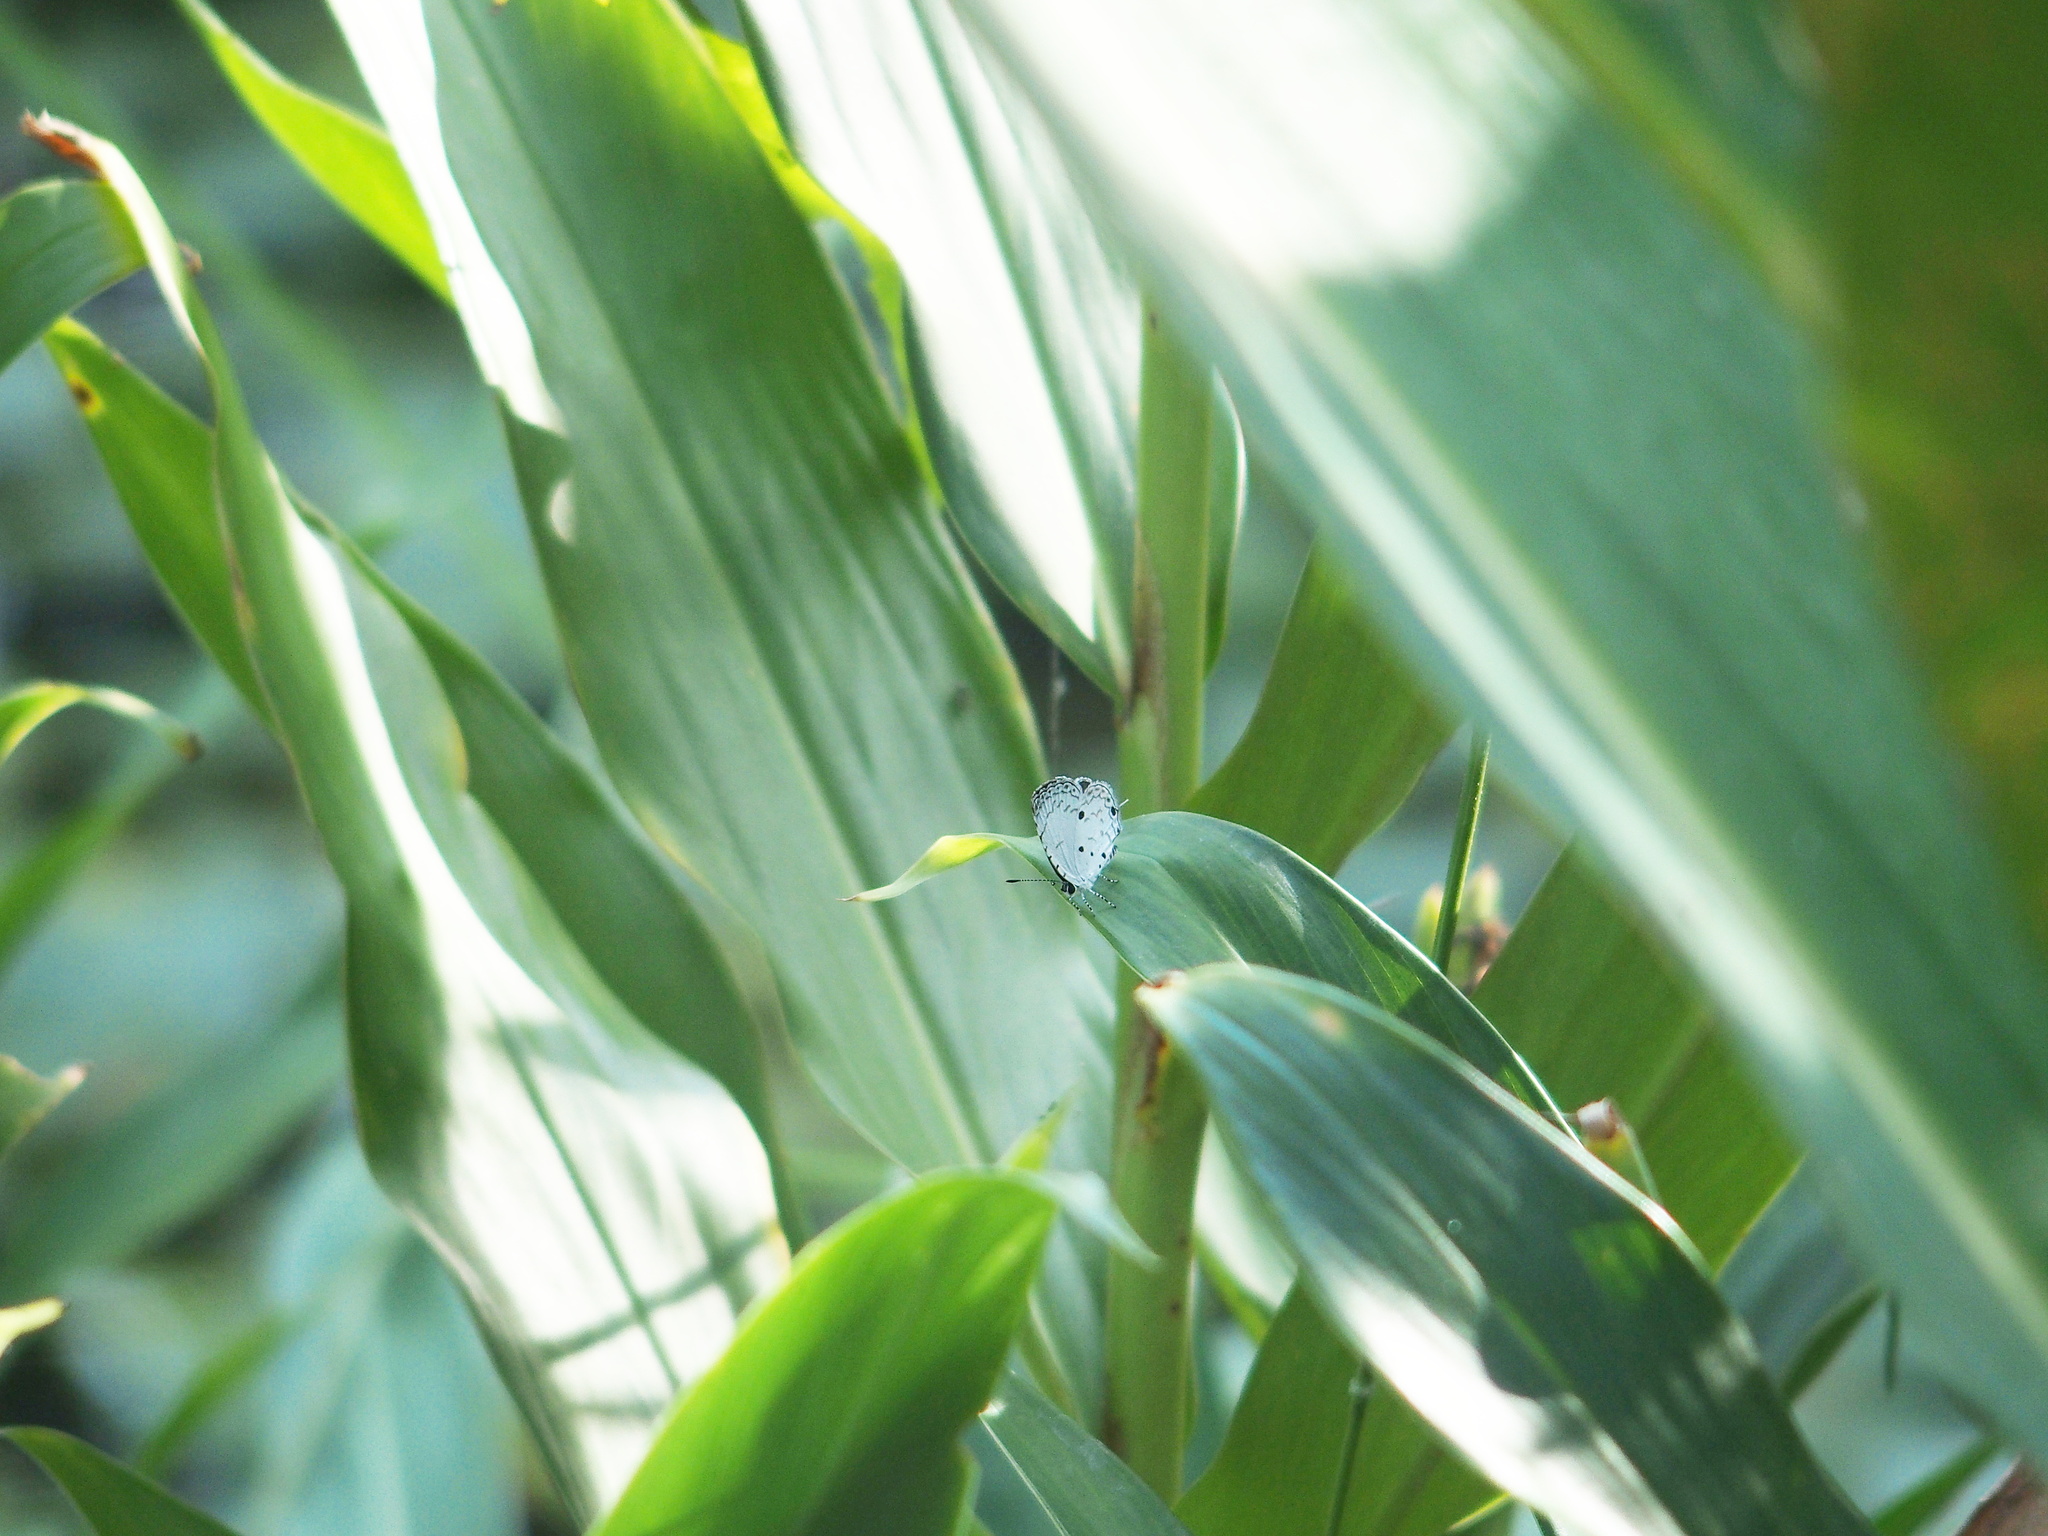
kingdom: Animalia
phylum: Arthropoda
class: Insecta
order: Lepidoptera
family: Lycaenidae
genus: Megisba
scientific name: Megisba malaya
